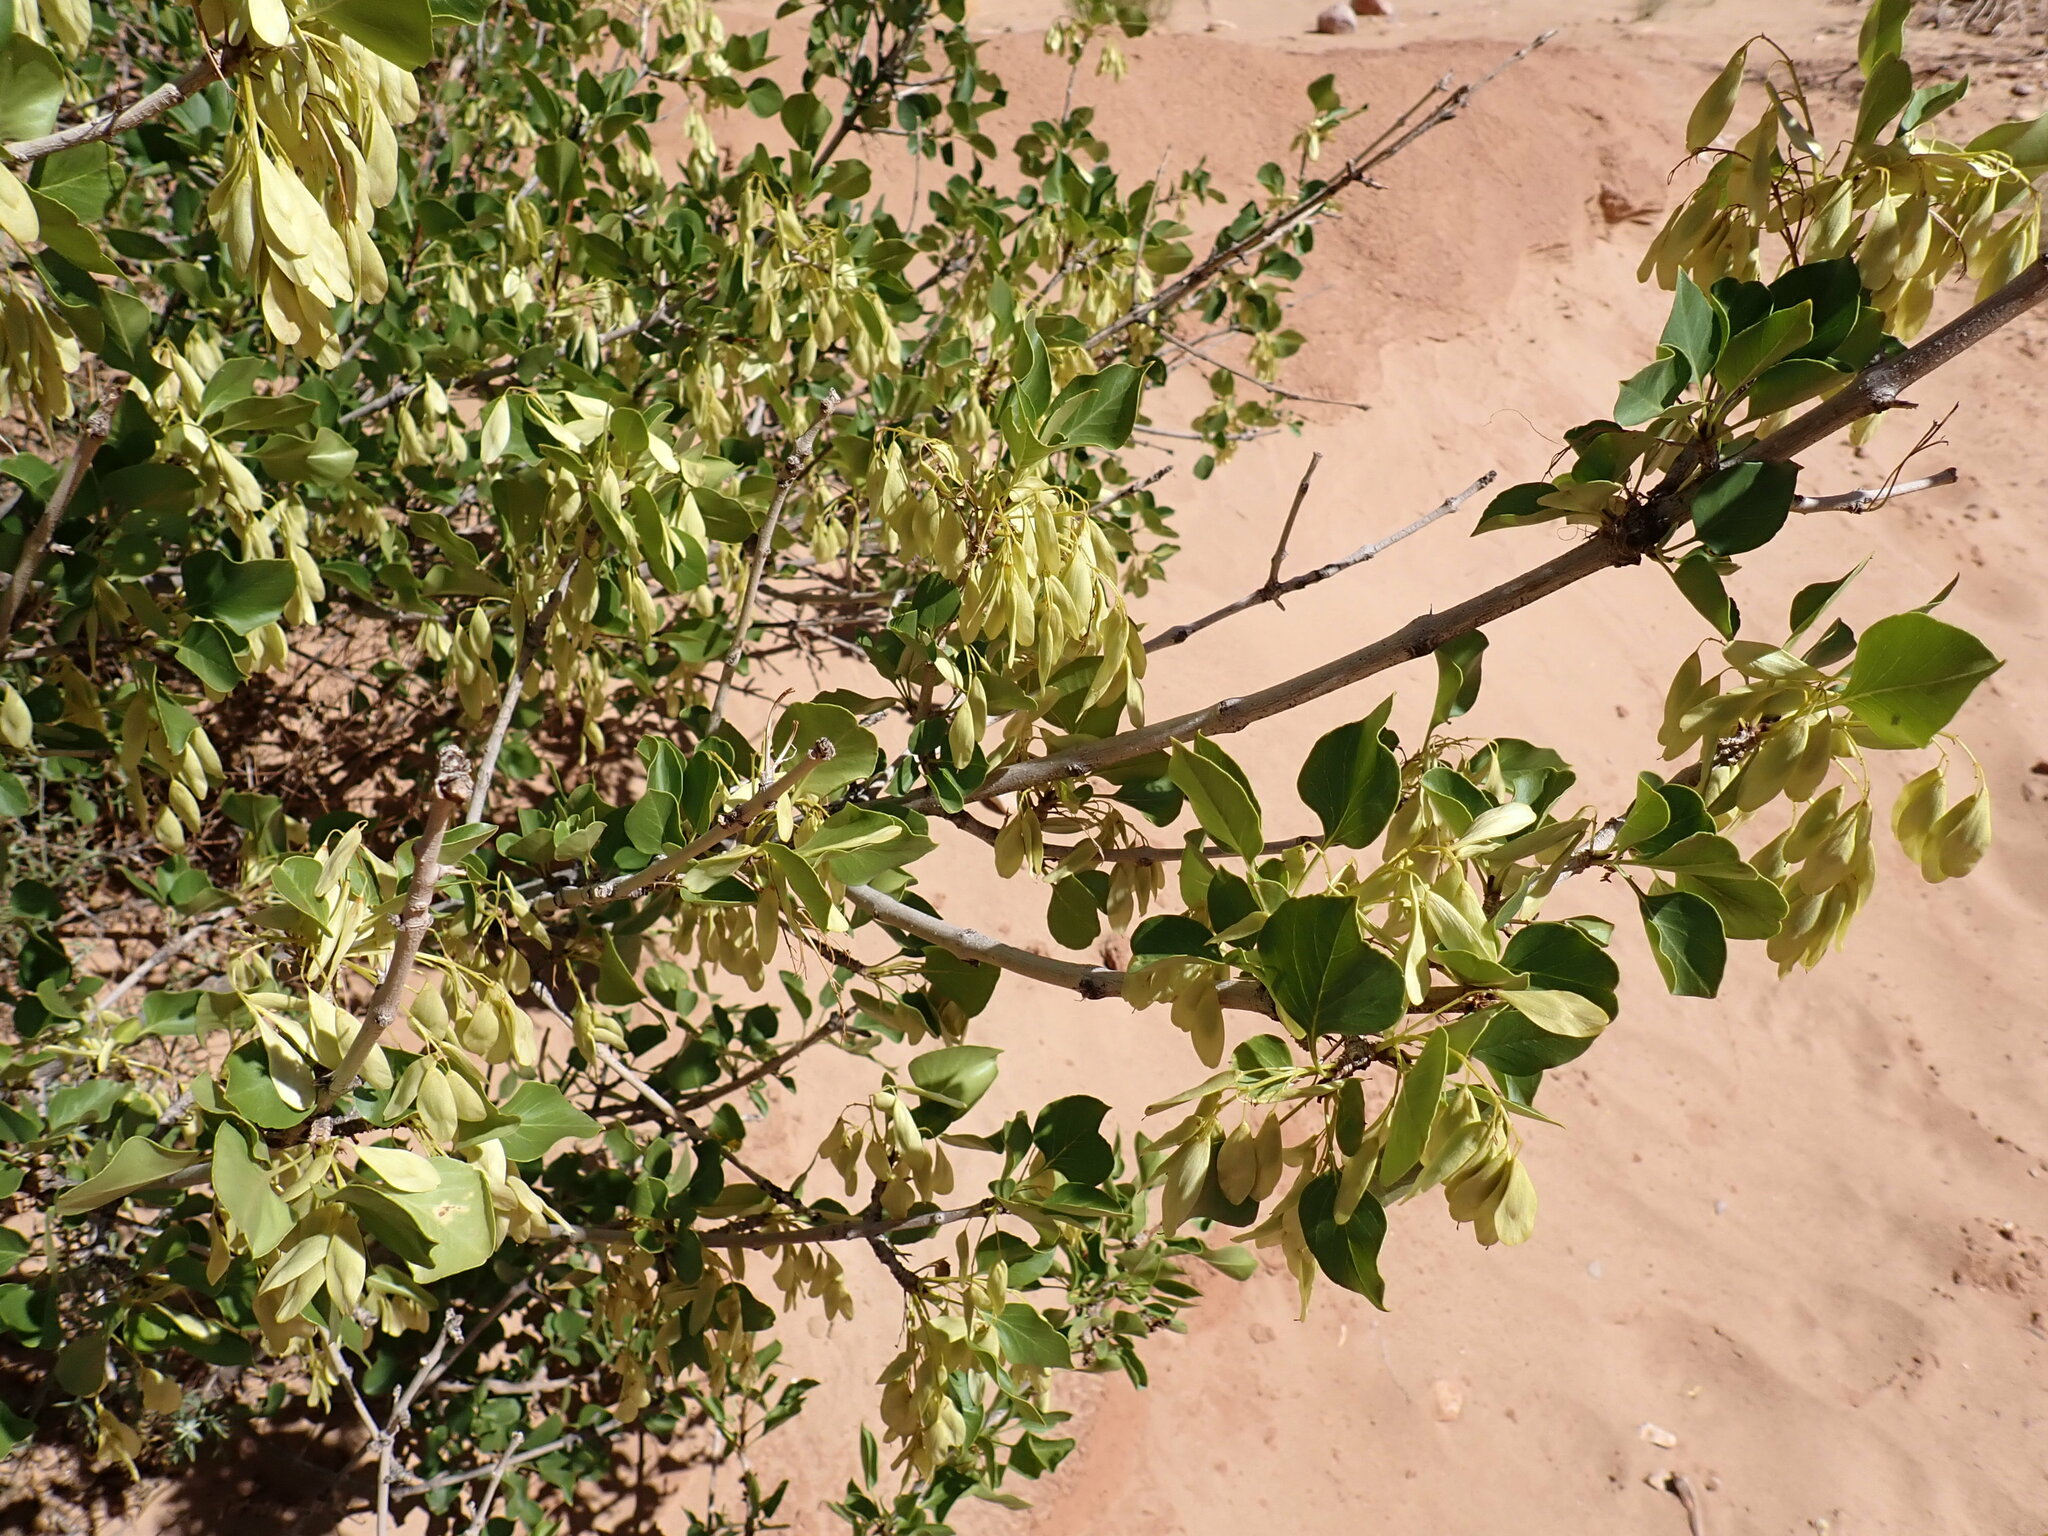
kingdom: Plantae
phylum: Tracheophyta
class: Magnoliopsida
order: Lamiales
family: Oleaceae
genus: Fraxinus
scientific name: Fraxinus anomala
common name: Utah ash
